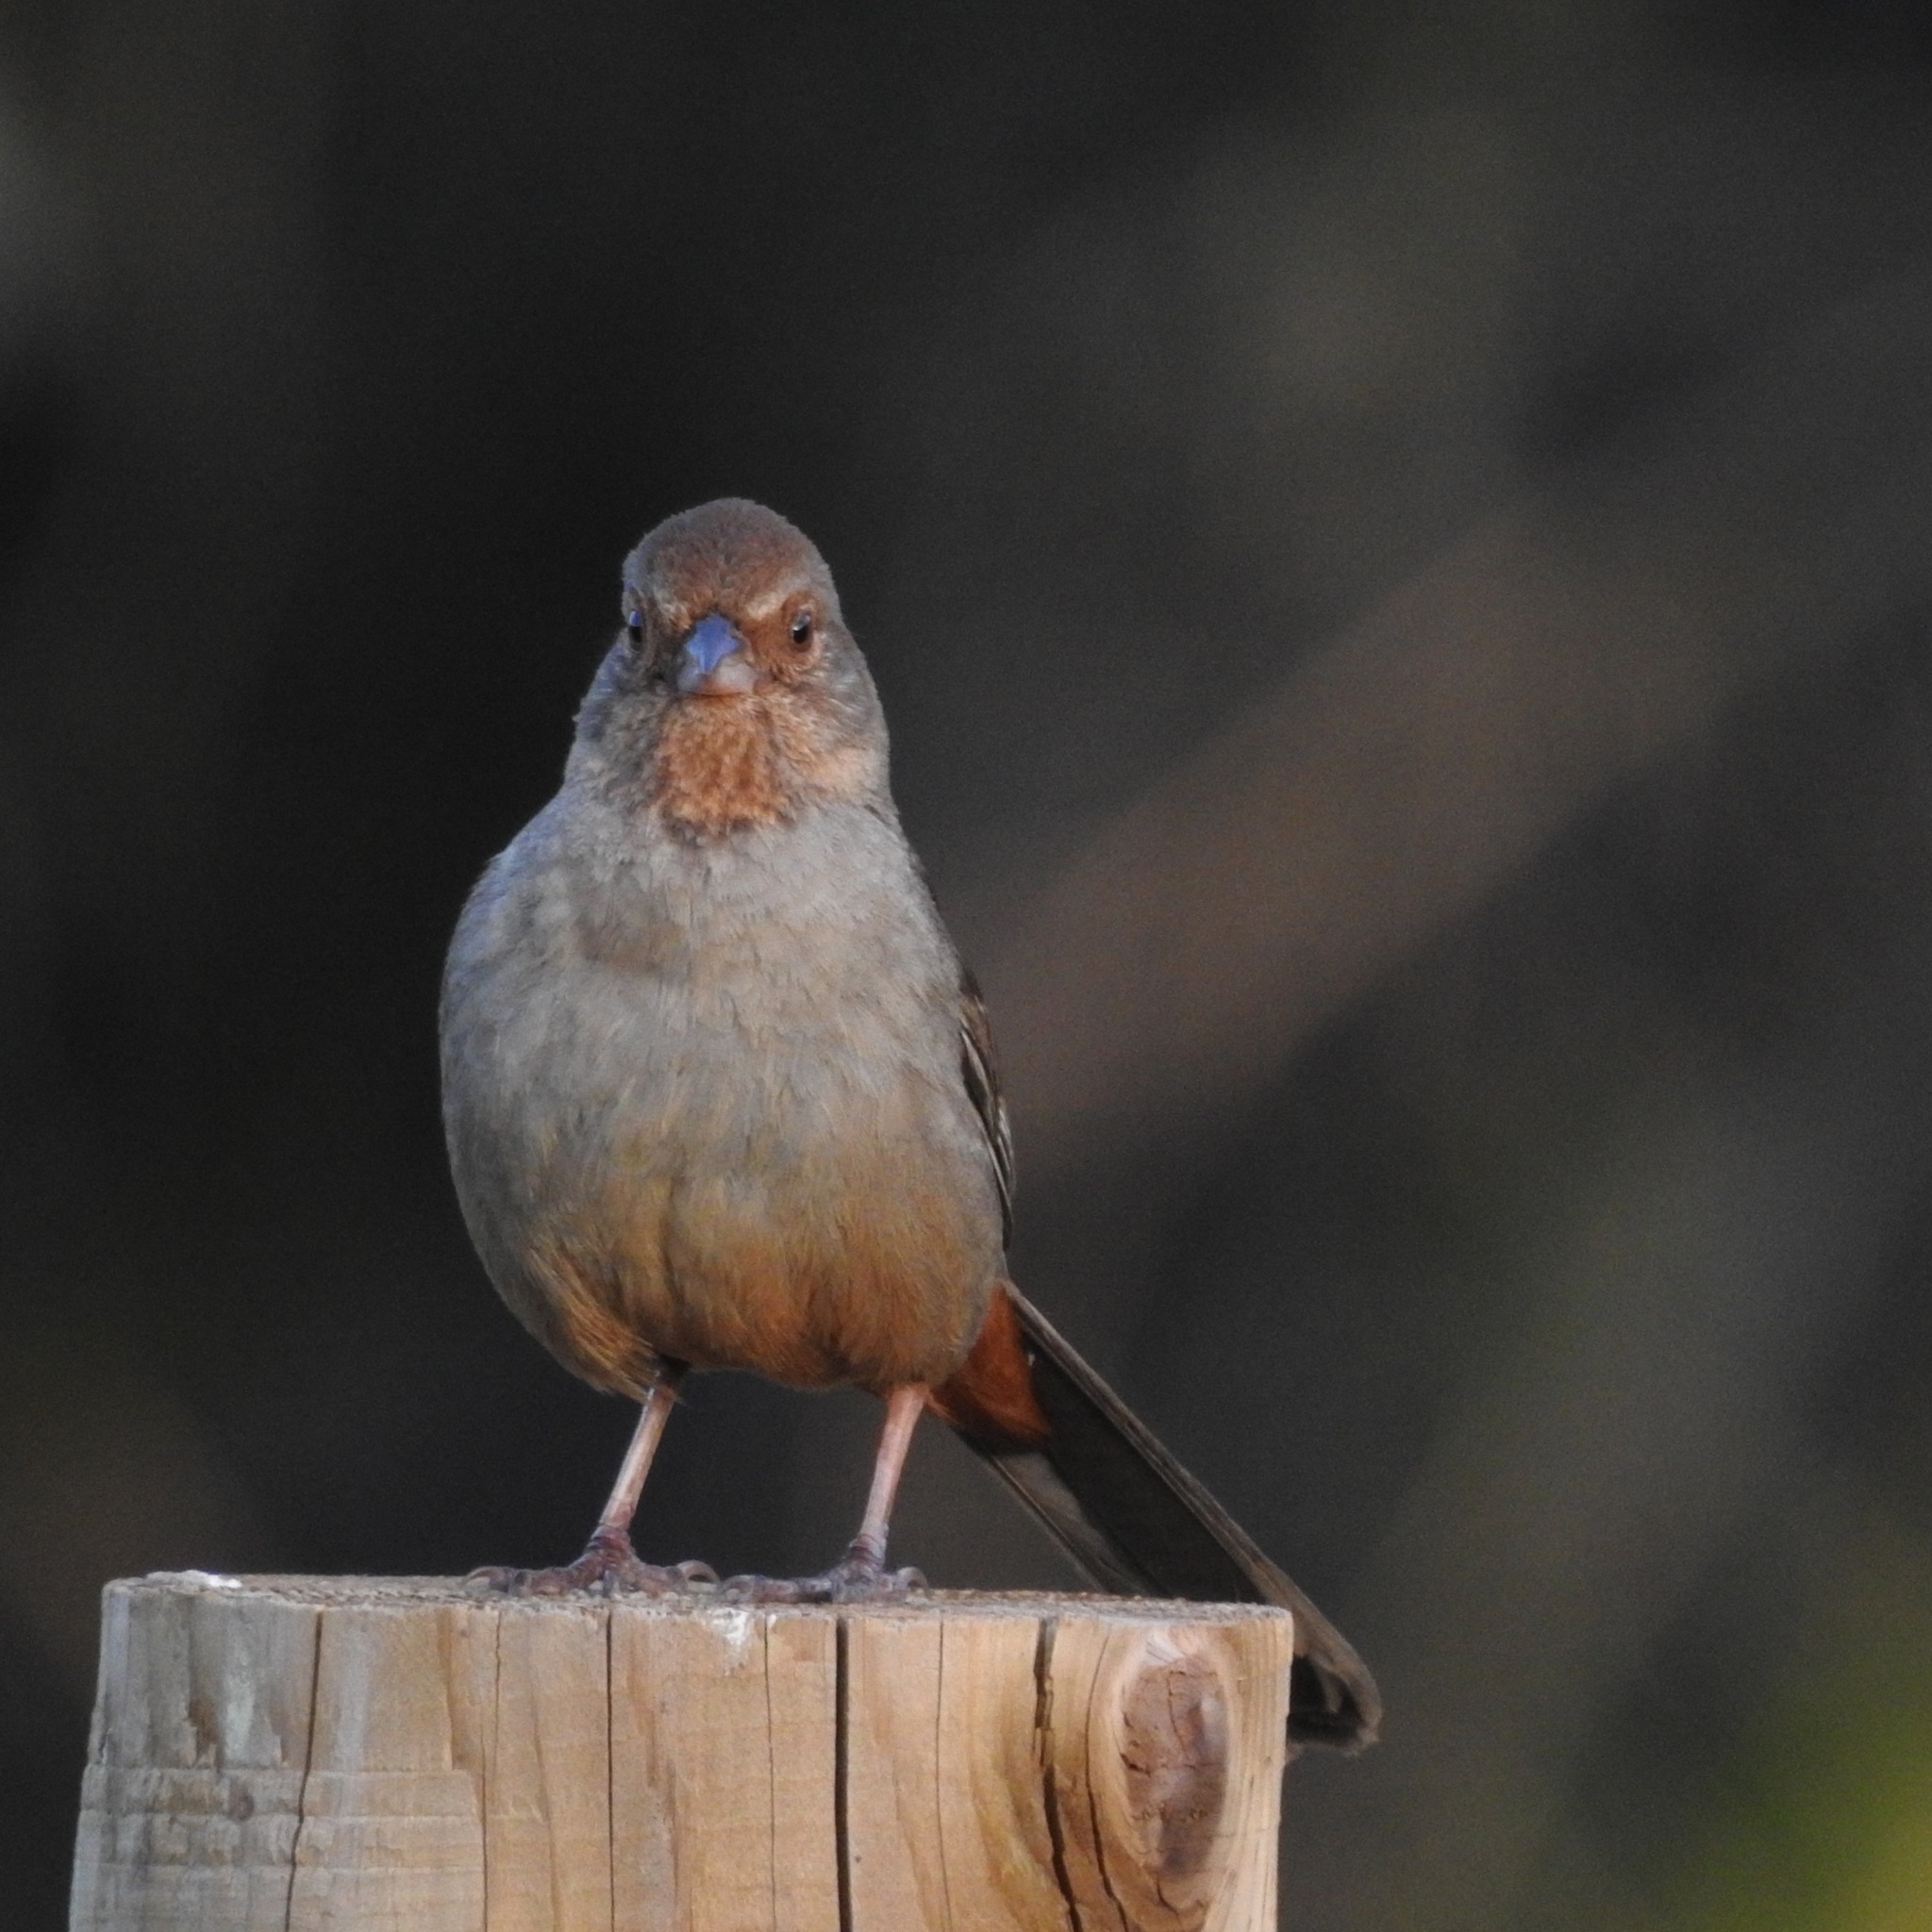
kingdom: Animalia
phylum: Chordata
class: Aves
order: Passeriformes
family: Passerellidae
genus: Melozone
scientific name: Melozone crissalis
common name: California towhee
